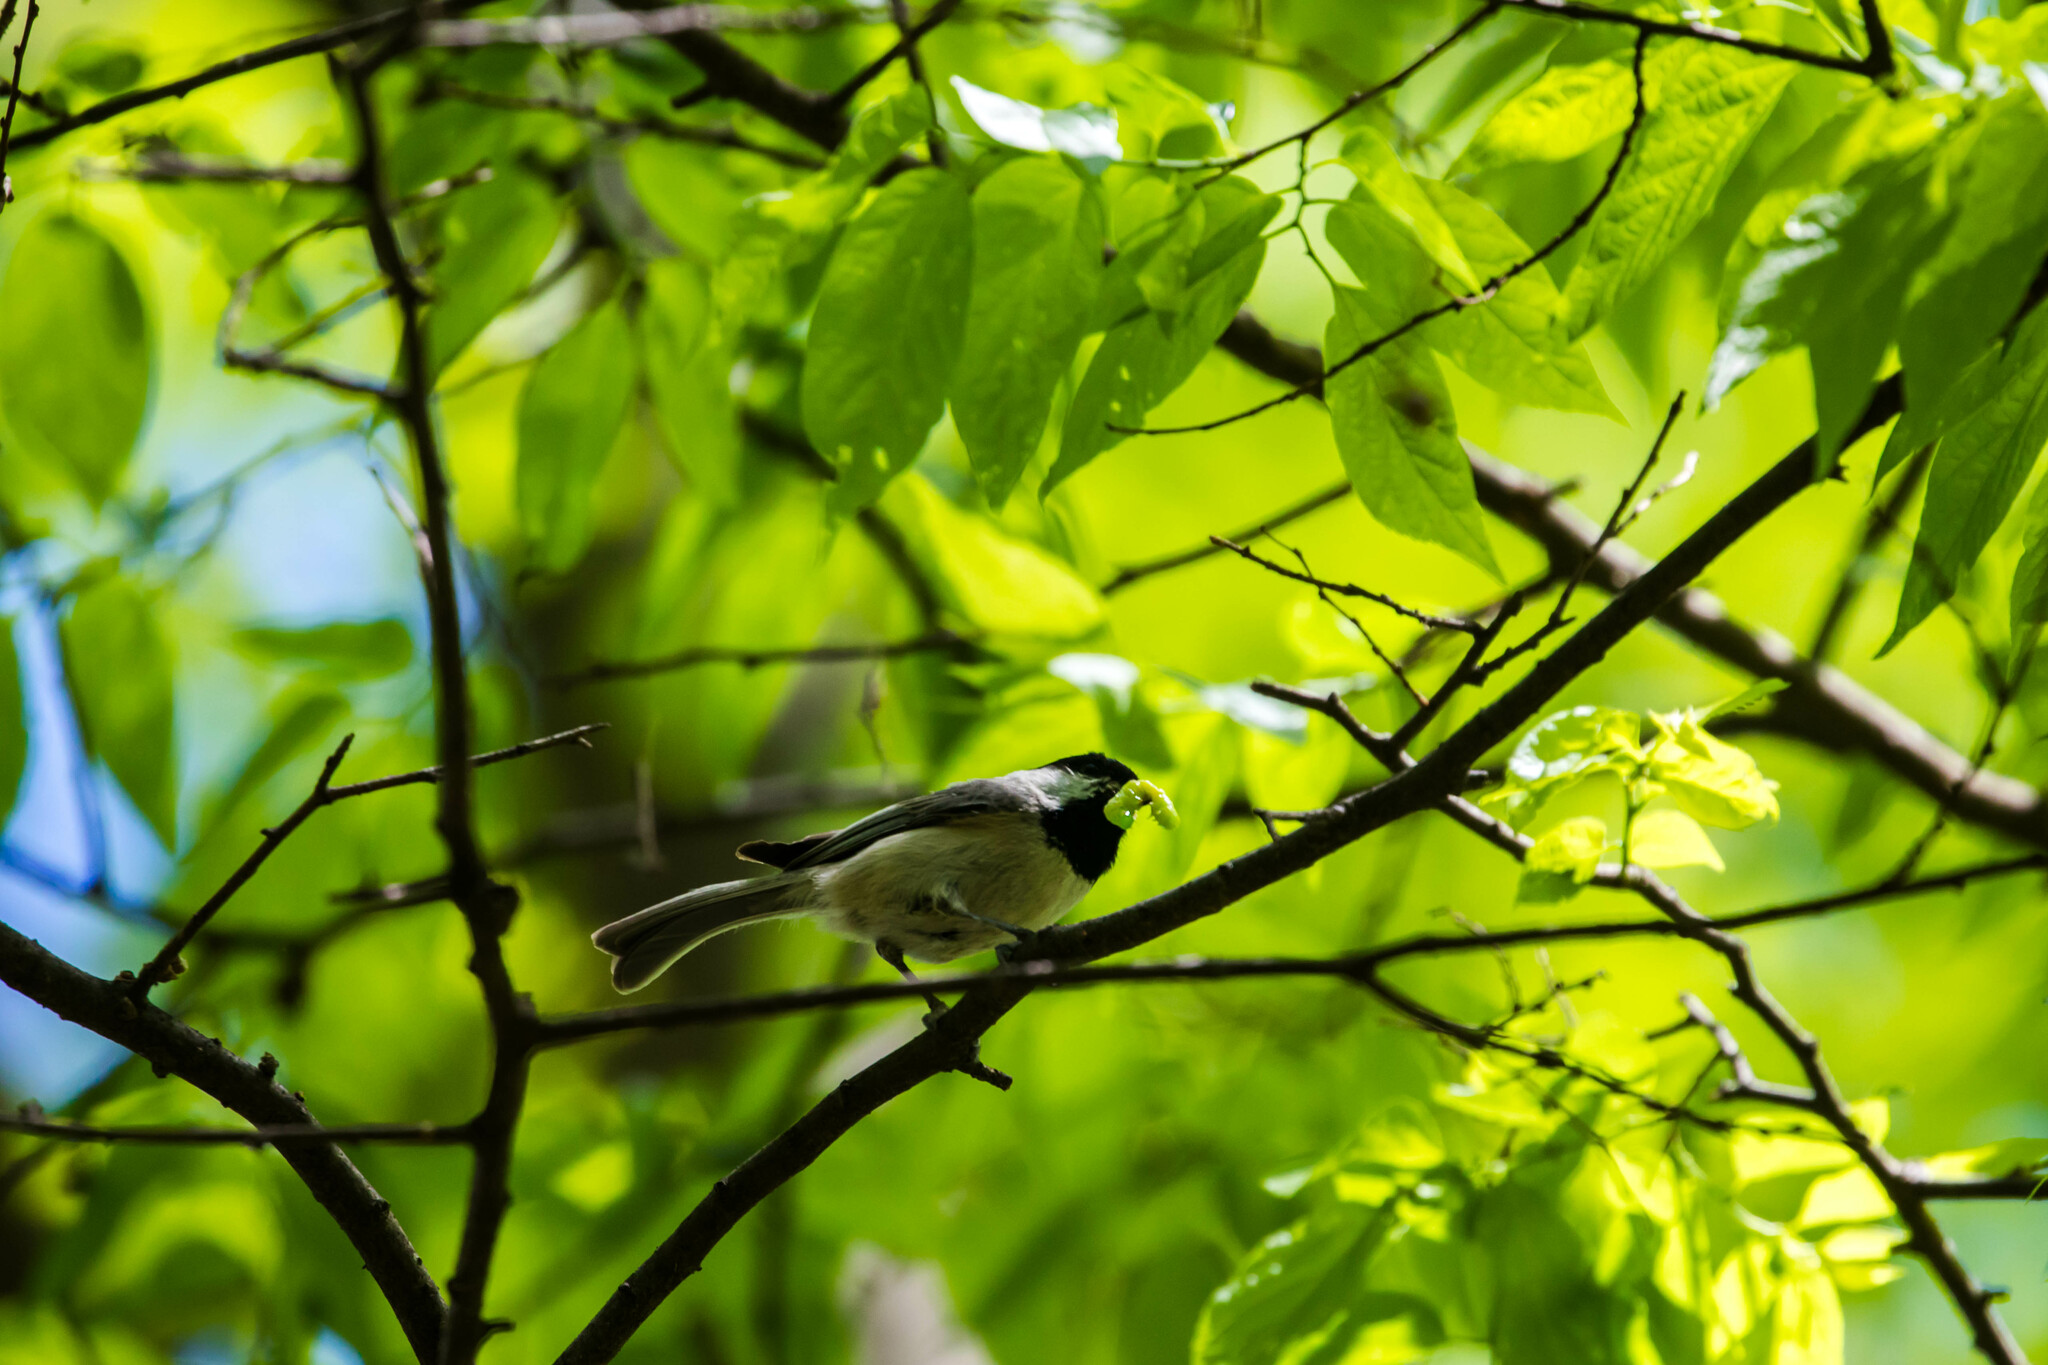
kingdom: Animalia
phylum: Chordata
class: Aves
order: Passeriformes
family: Paridae
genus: Poecile
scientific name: Poecile carolinensis
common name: Carolina chickadee
